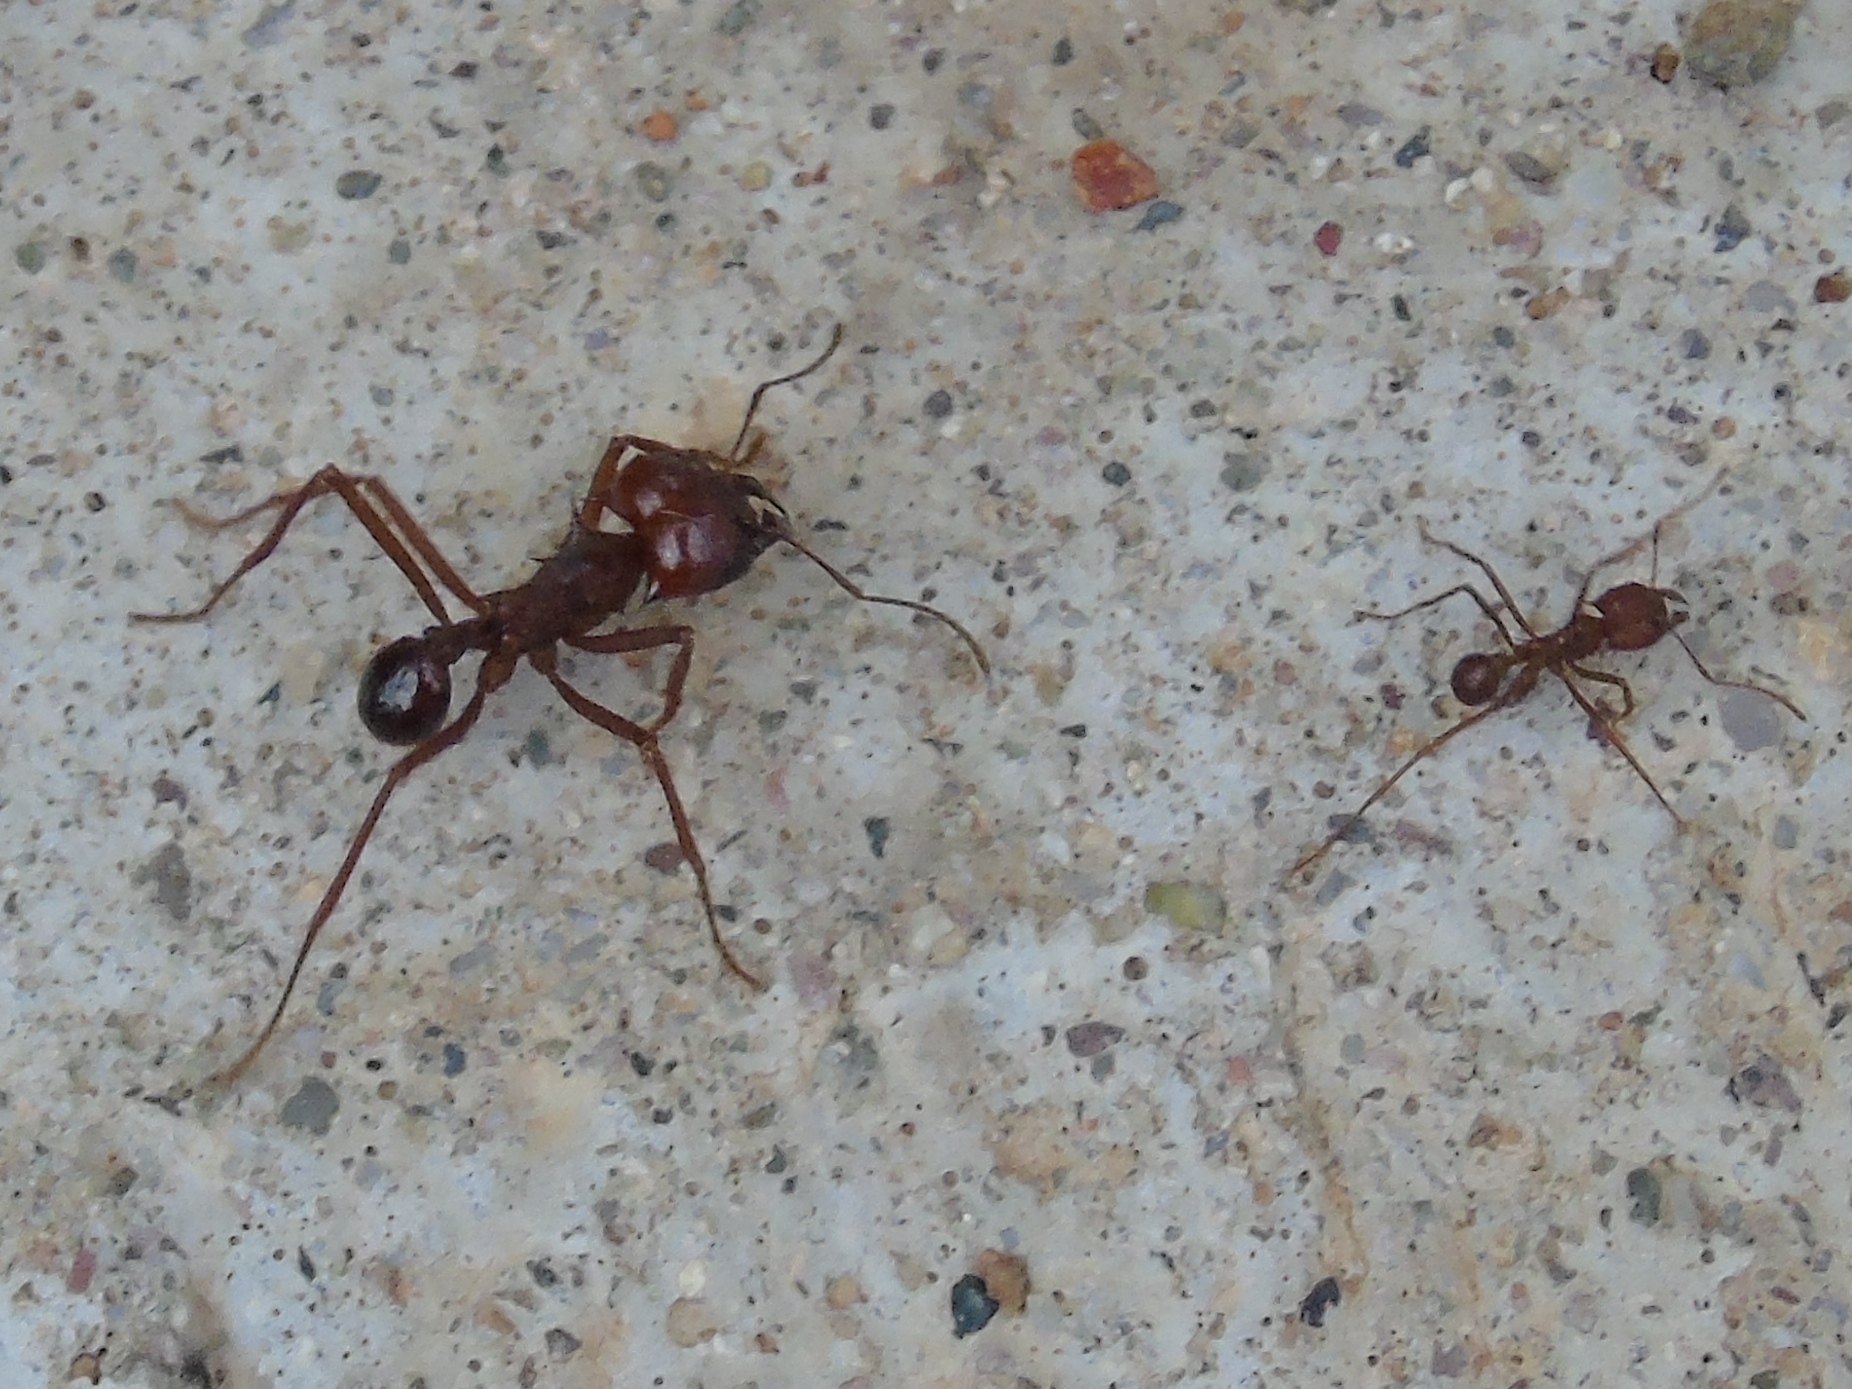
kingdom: Animalia
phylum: Arthropoda
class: Insecta
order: Hymenoptera
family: Formicidae
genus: Atta
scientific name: Atta mexicana
